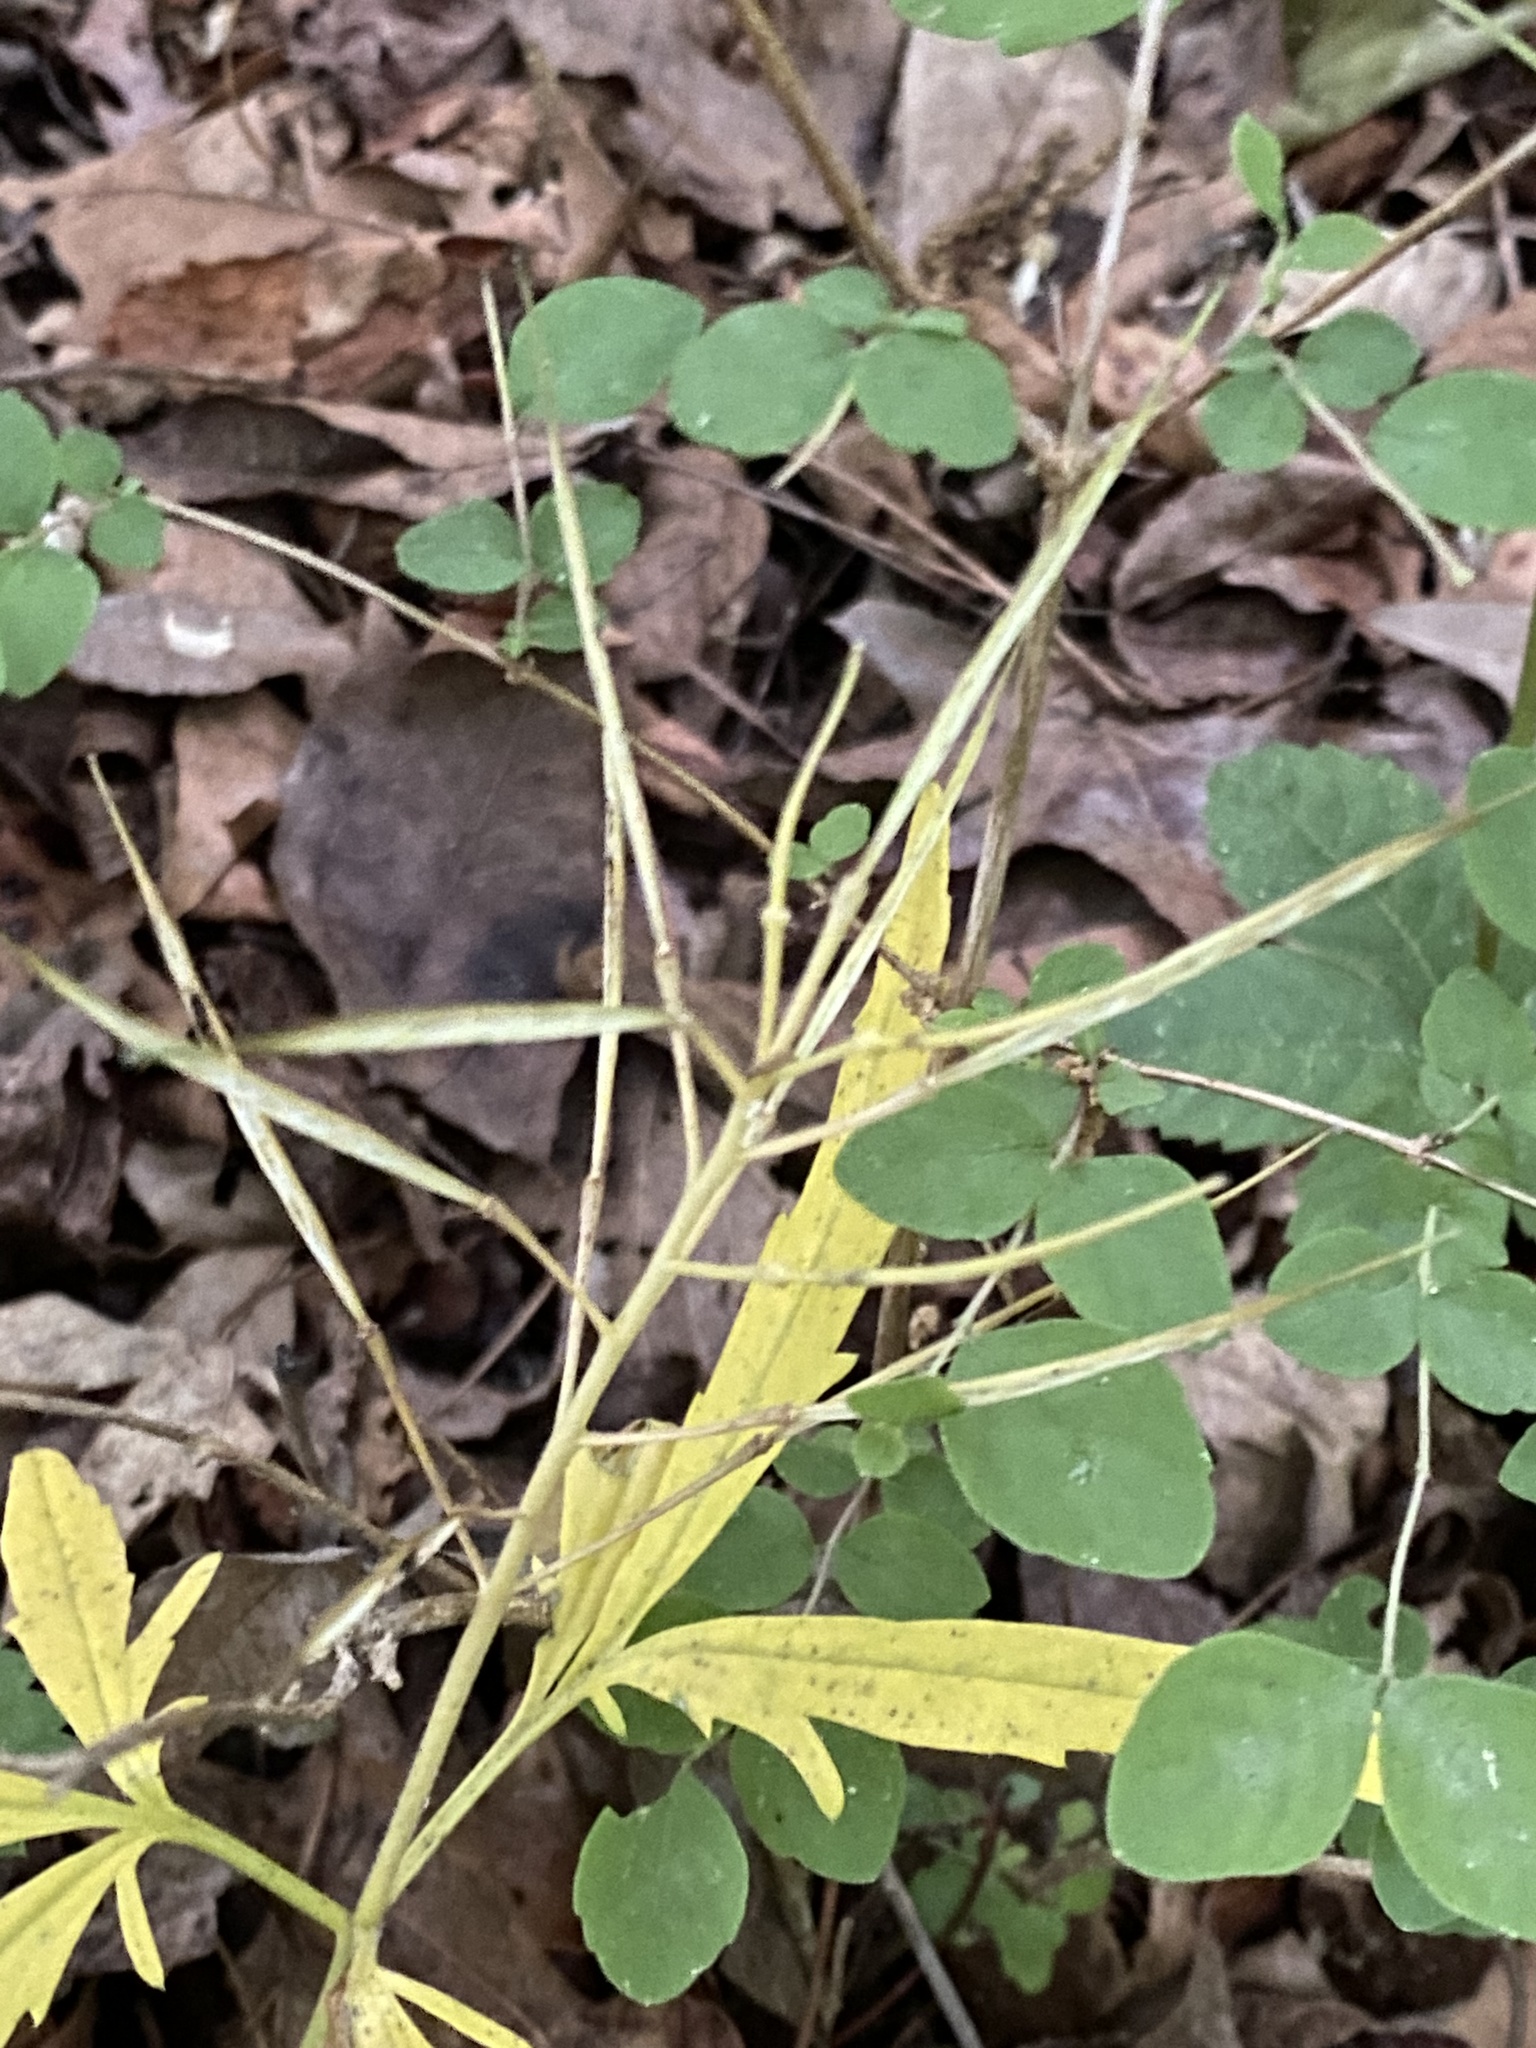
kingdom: Plantae
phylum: Tracheophyta
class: Magnoliopsida
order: Brassicales
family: Brassicaceae
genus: Cardamine
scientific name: Cardamine concatenata
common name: Cut-leaf toothcup
